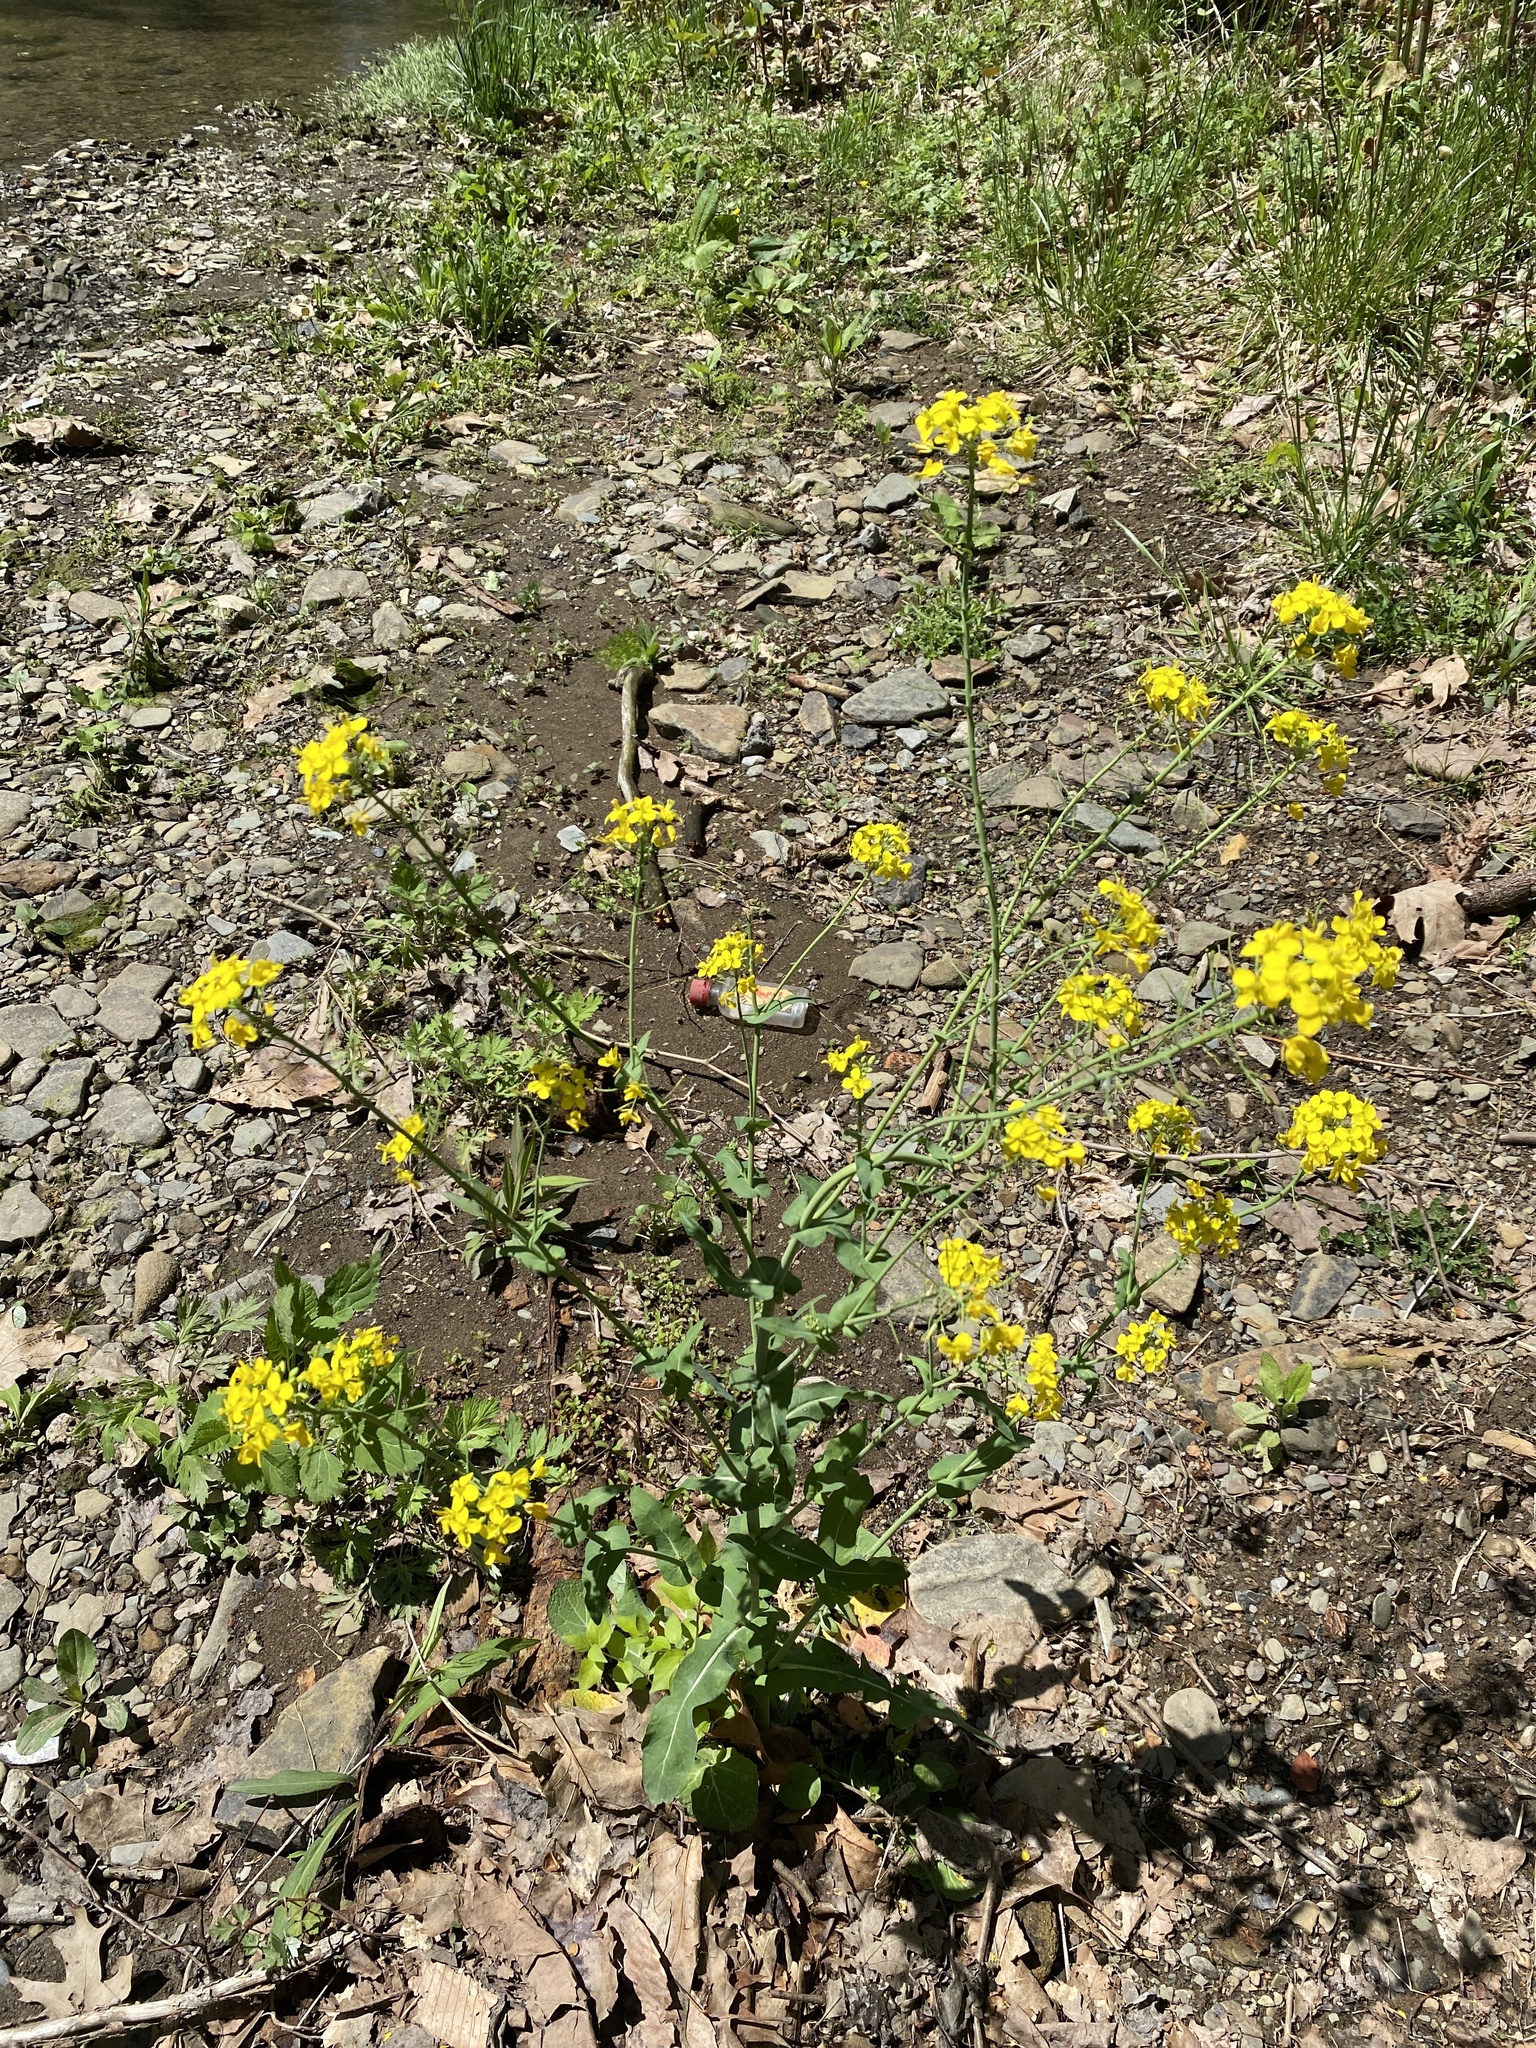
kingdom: Plantae
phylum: Tracheophyta
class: Magnoliopsida
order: Brassicales
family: Brassicaceae
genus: Brassica
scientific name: Brassica rapa
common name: Field mustard
